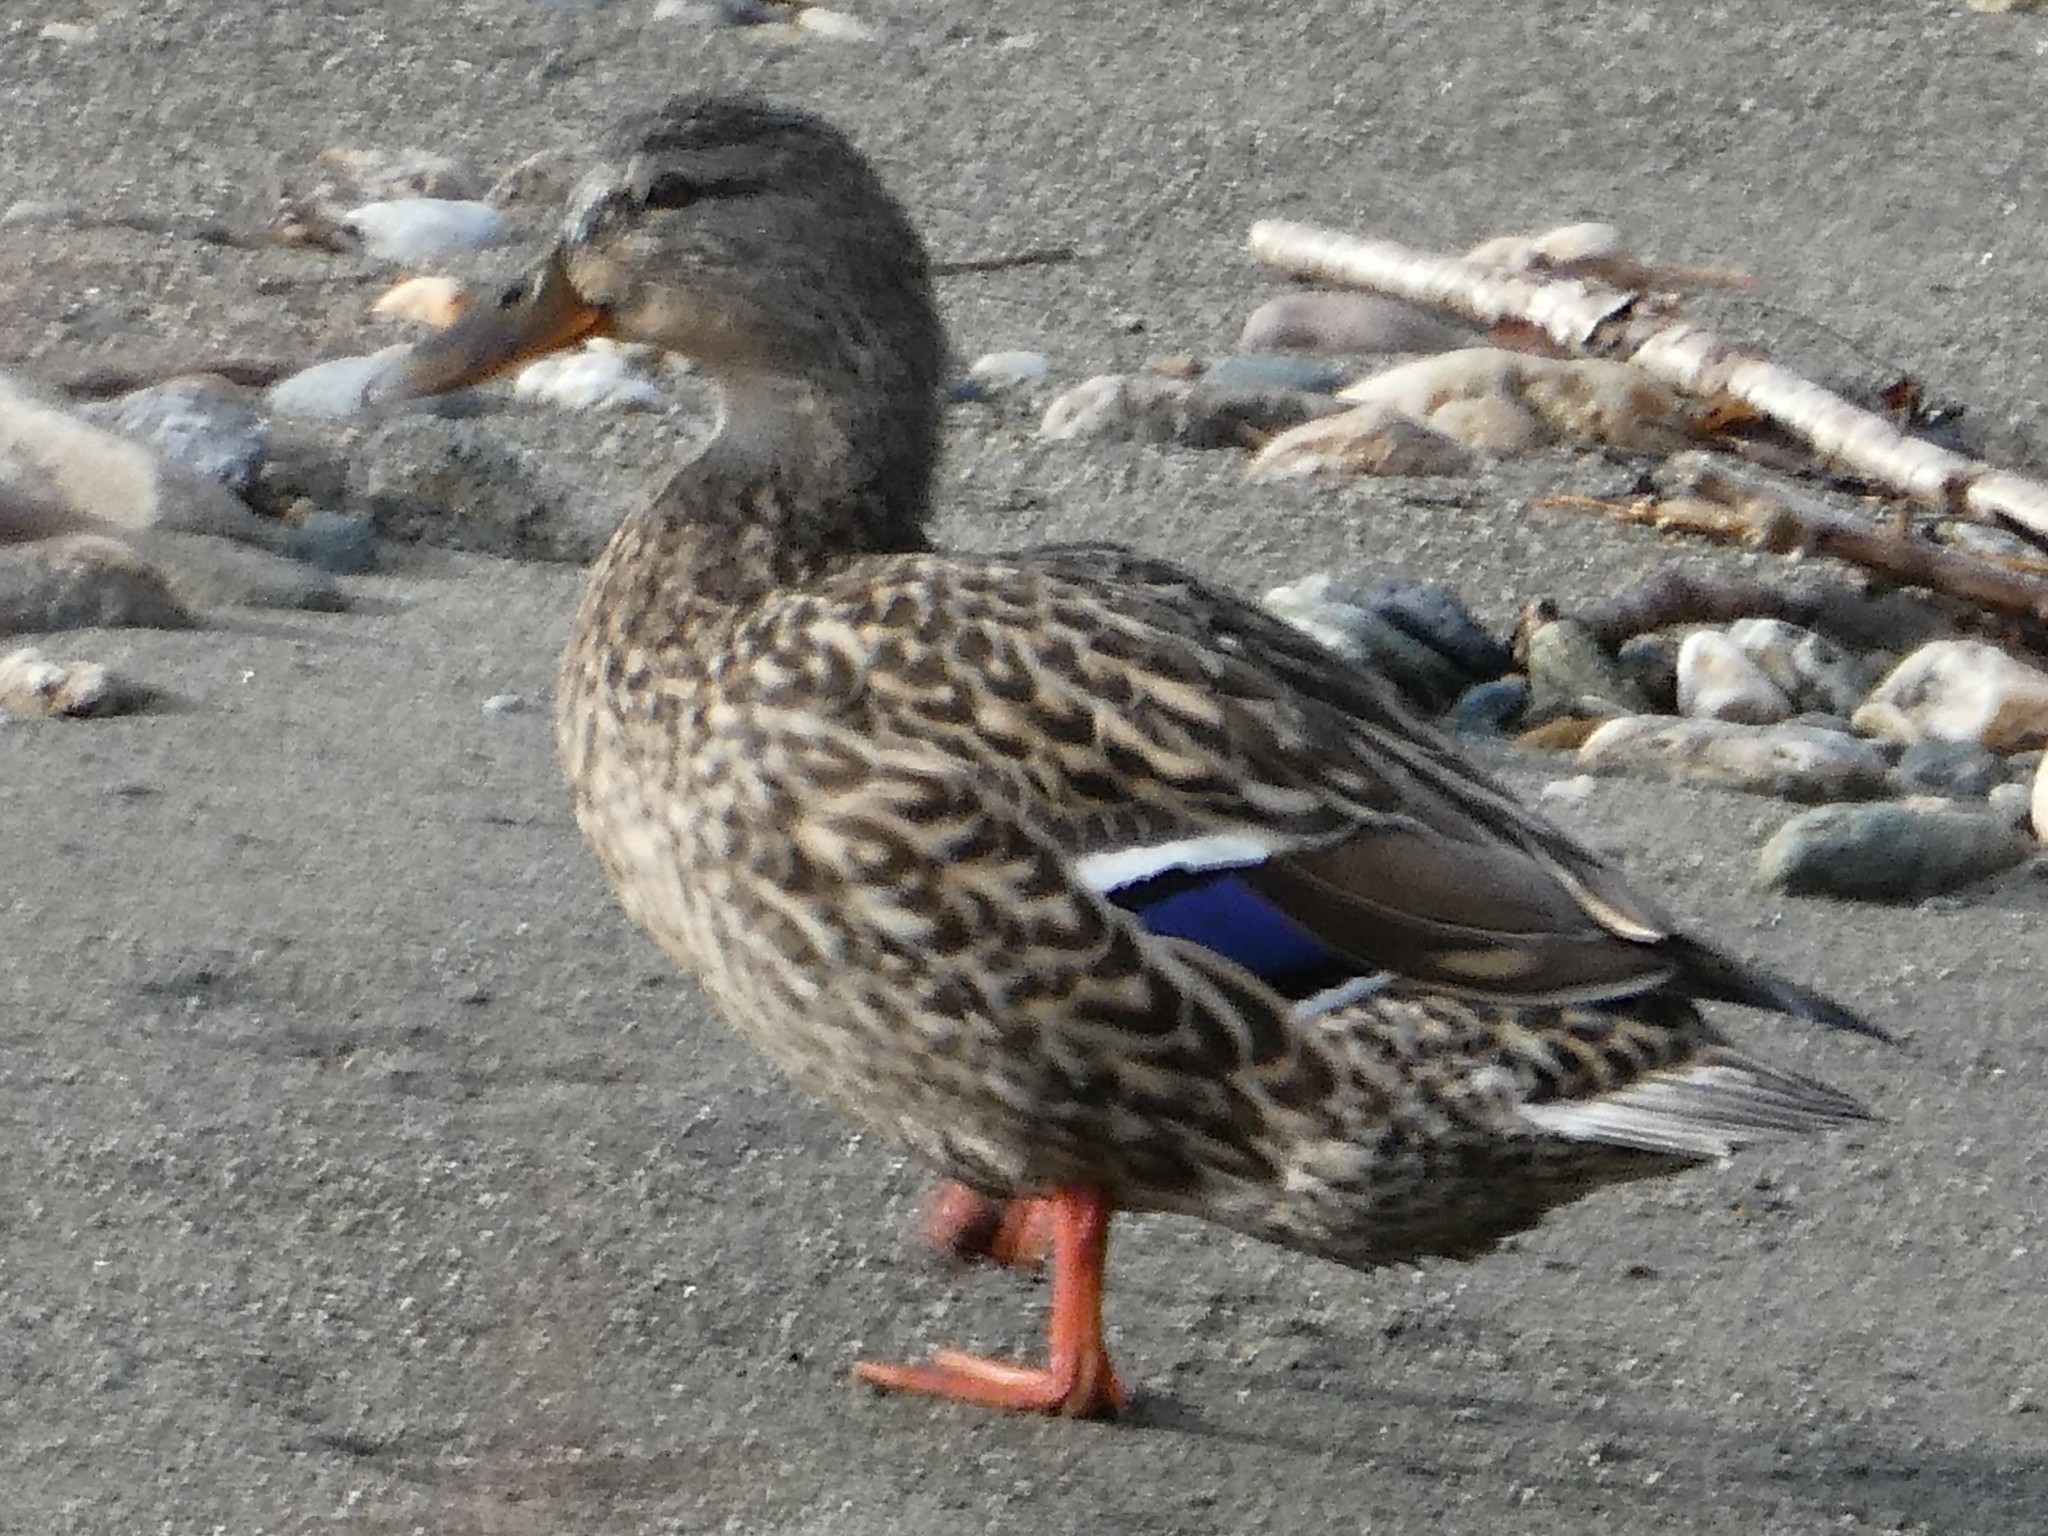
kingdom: Animalia
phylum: Chordata
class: Aves
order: Anseriformes
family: Anatidae
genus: Anas
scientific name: Anas platyrhynchos
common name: Mallard
